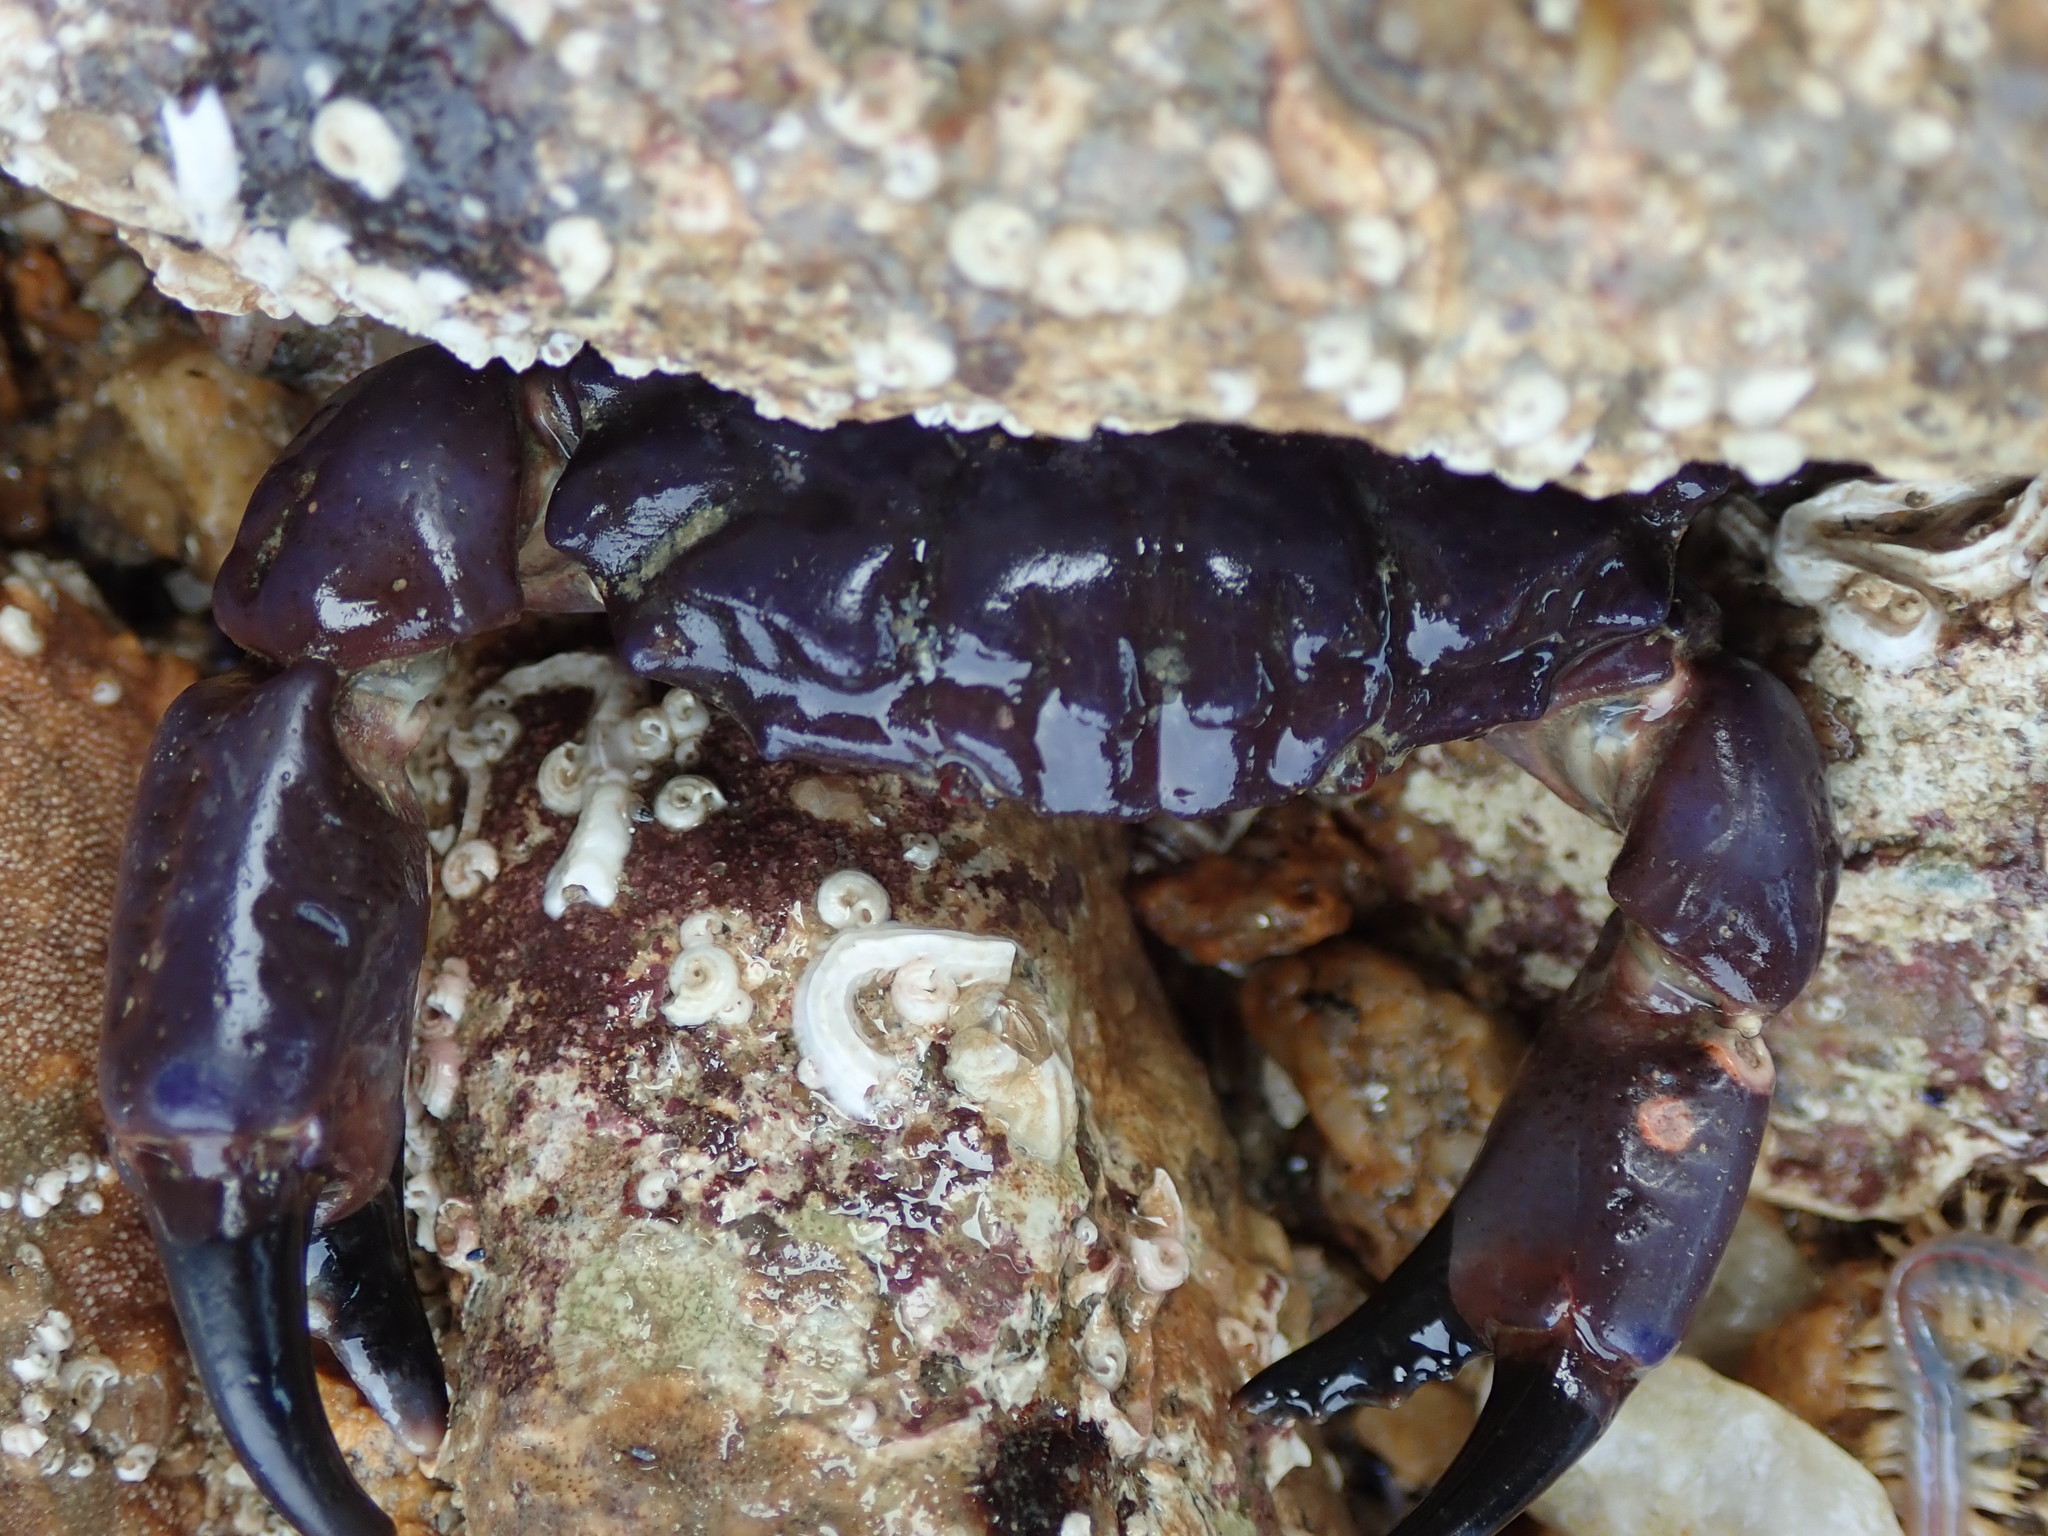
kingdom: Animalia
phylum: Arthropoda
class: Malacostraca
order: Decapoda
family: Xanthidae
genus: Xantho
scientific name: Xantho hydrophilus
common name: Montagu's crab
